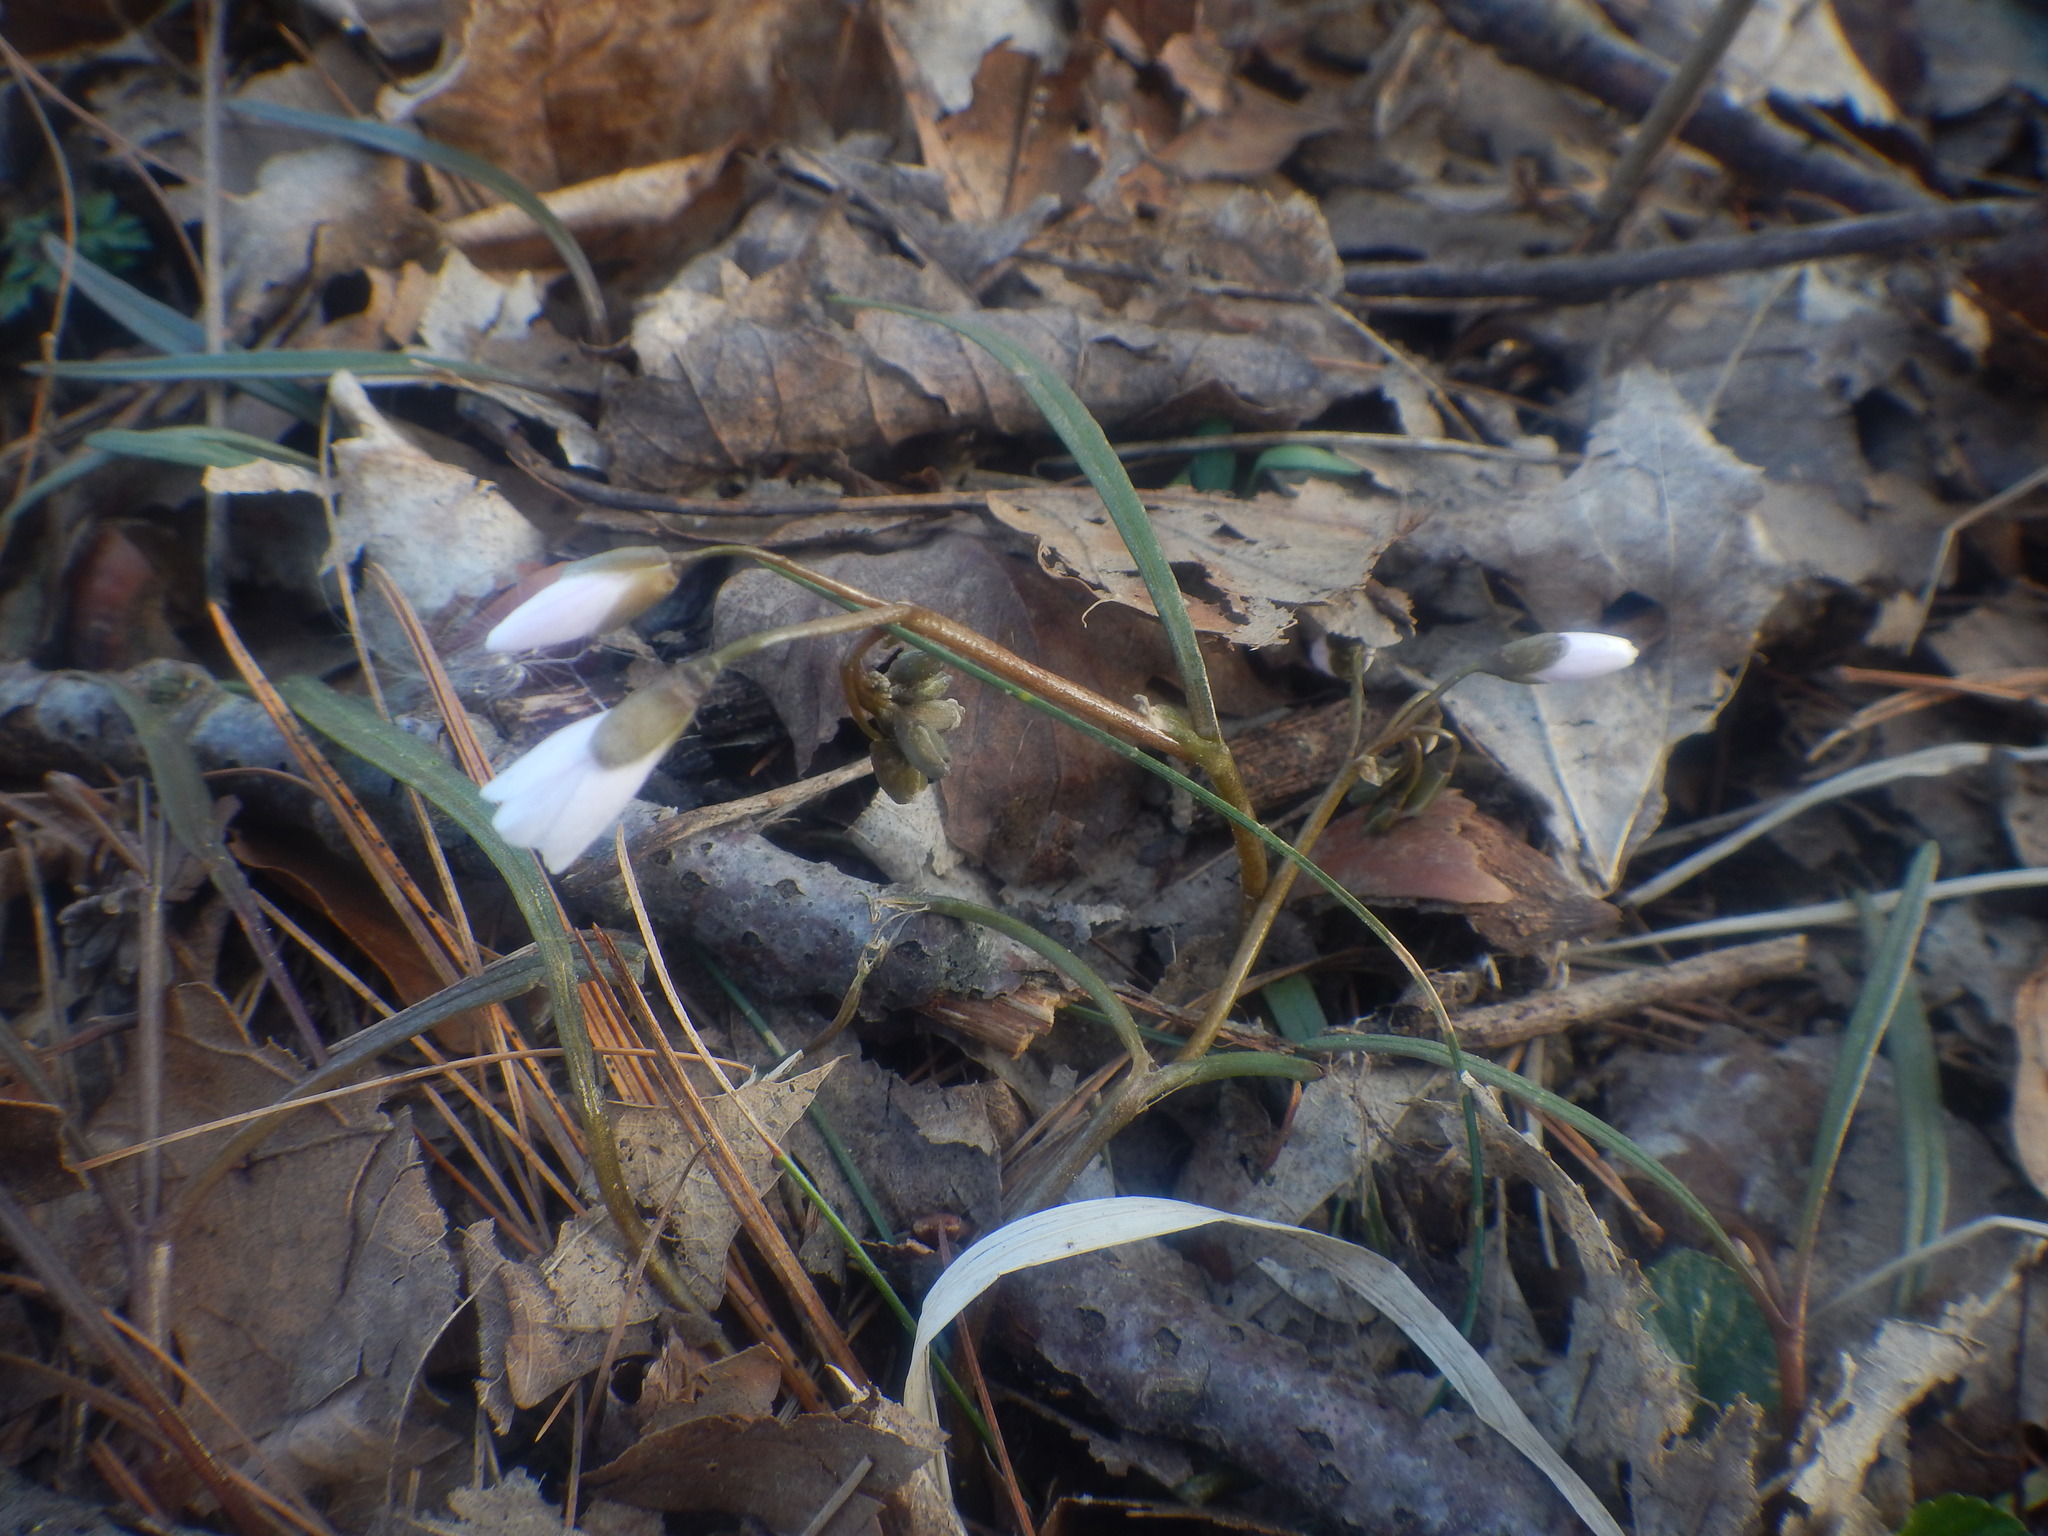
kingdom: Plantae
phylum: Tracheophyta
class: Magnoliopsida
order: Caryophyllales
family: Montiaceae
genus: Claytonia
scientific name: Claytonia virginica
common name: Virginia springbeauty
